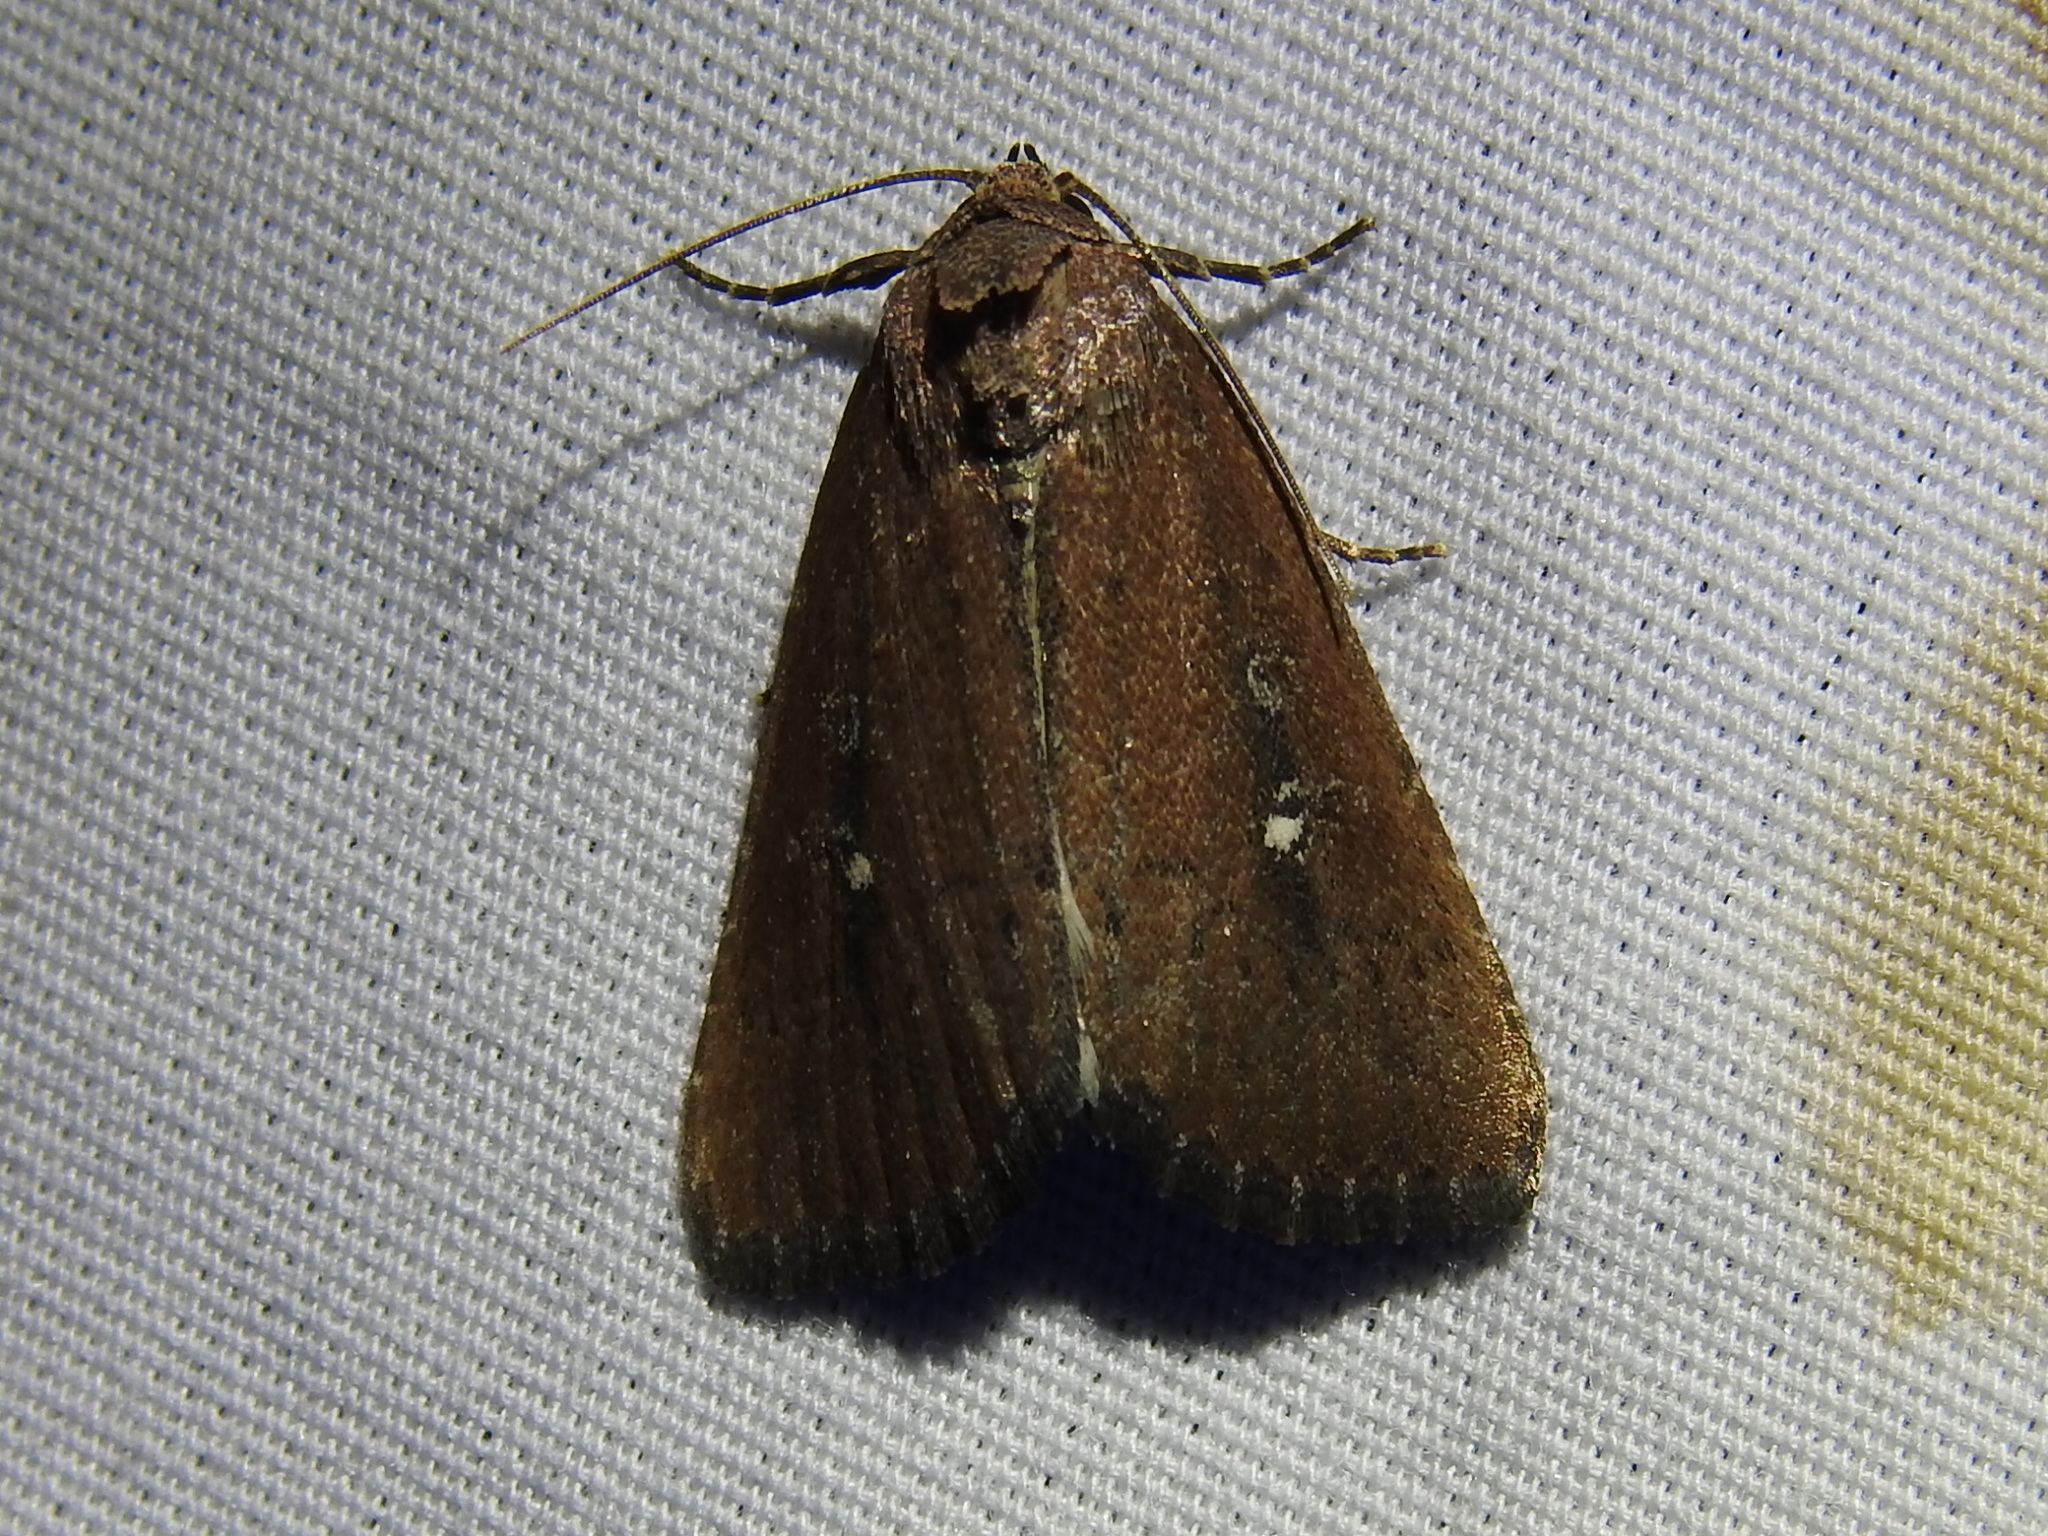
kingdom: Animalia
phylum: Arthropoda
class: Insecta
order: Lepidoptera
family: Noctuidae
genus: Condica
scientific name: Condica videns
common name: White-dotted groundling
